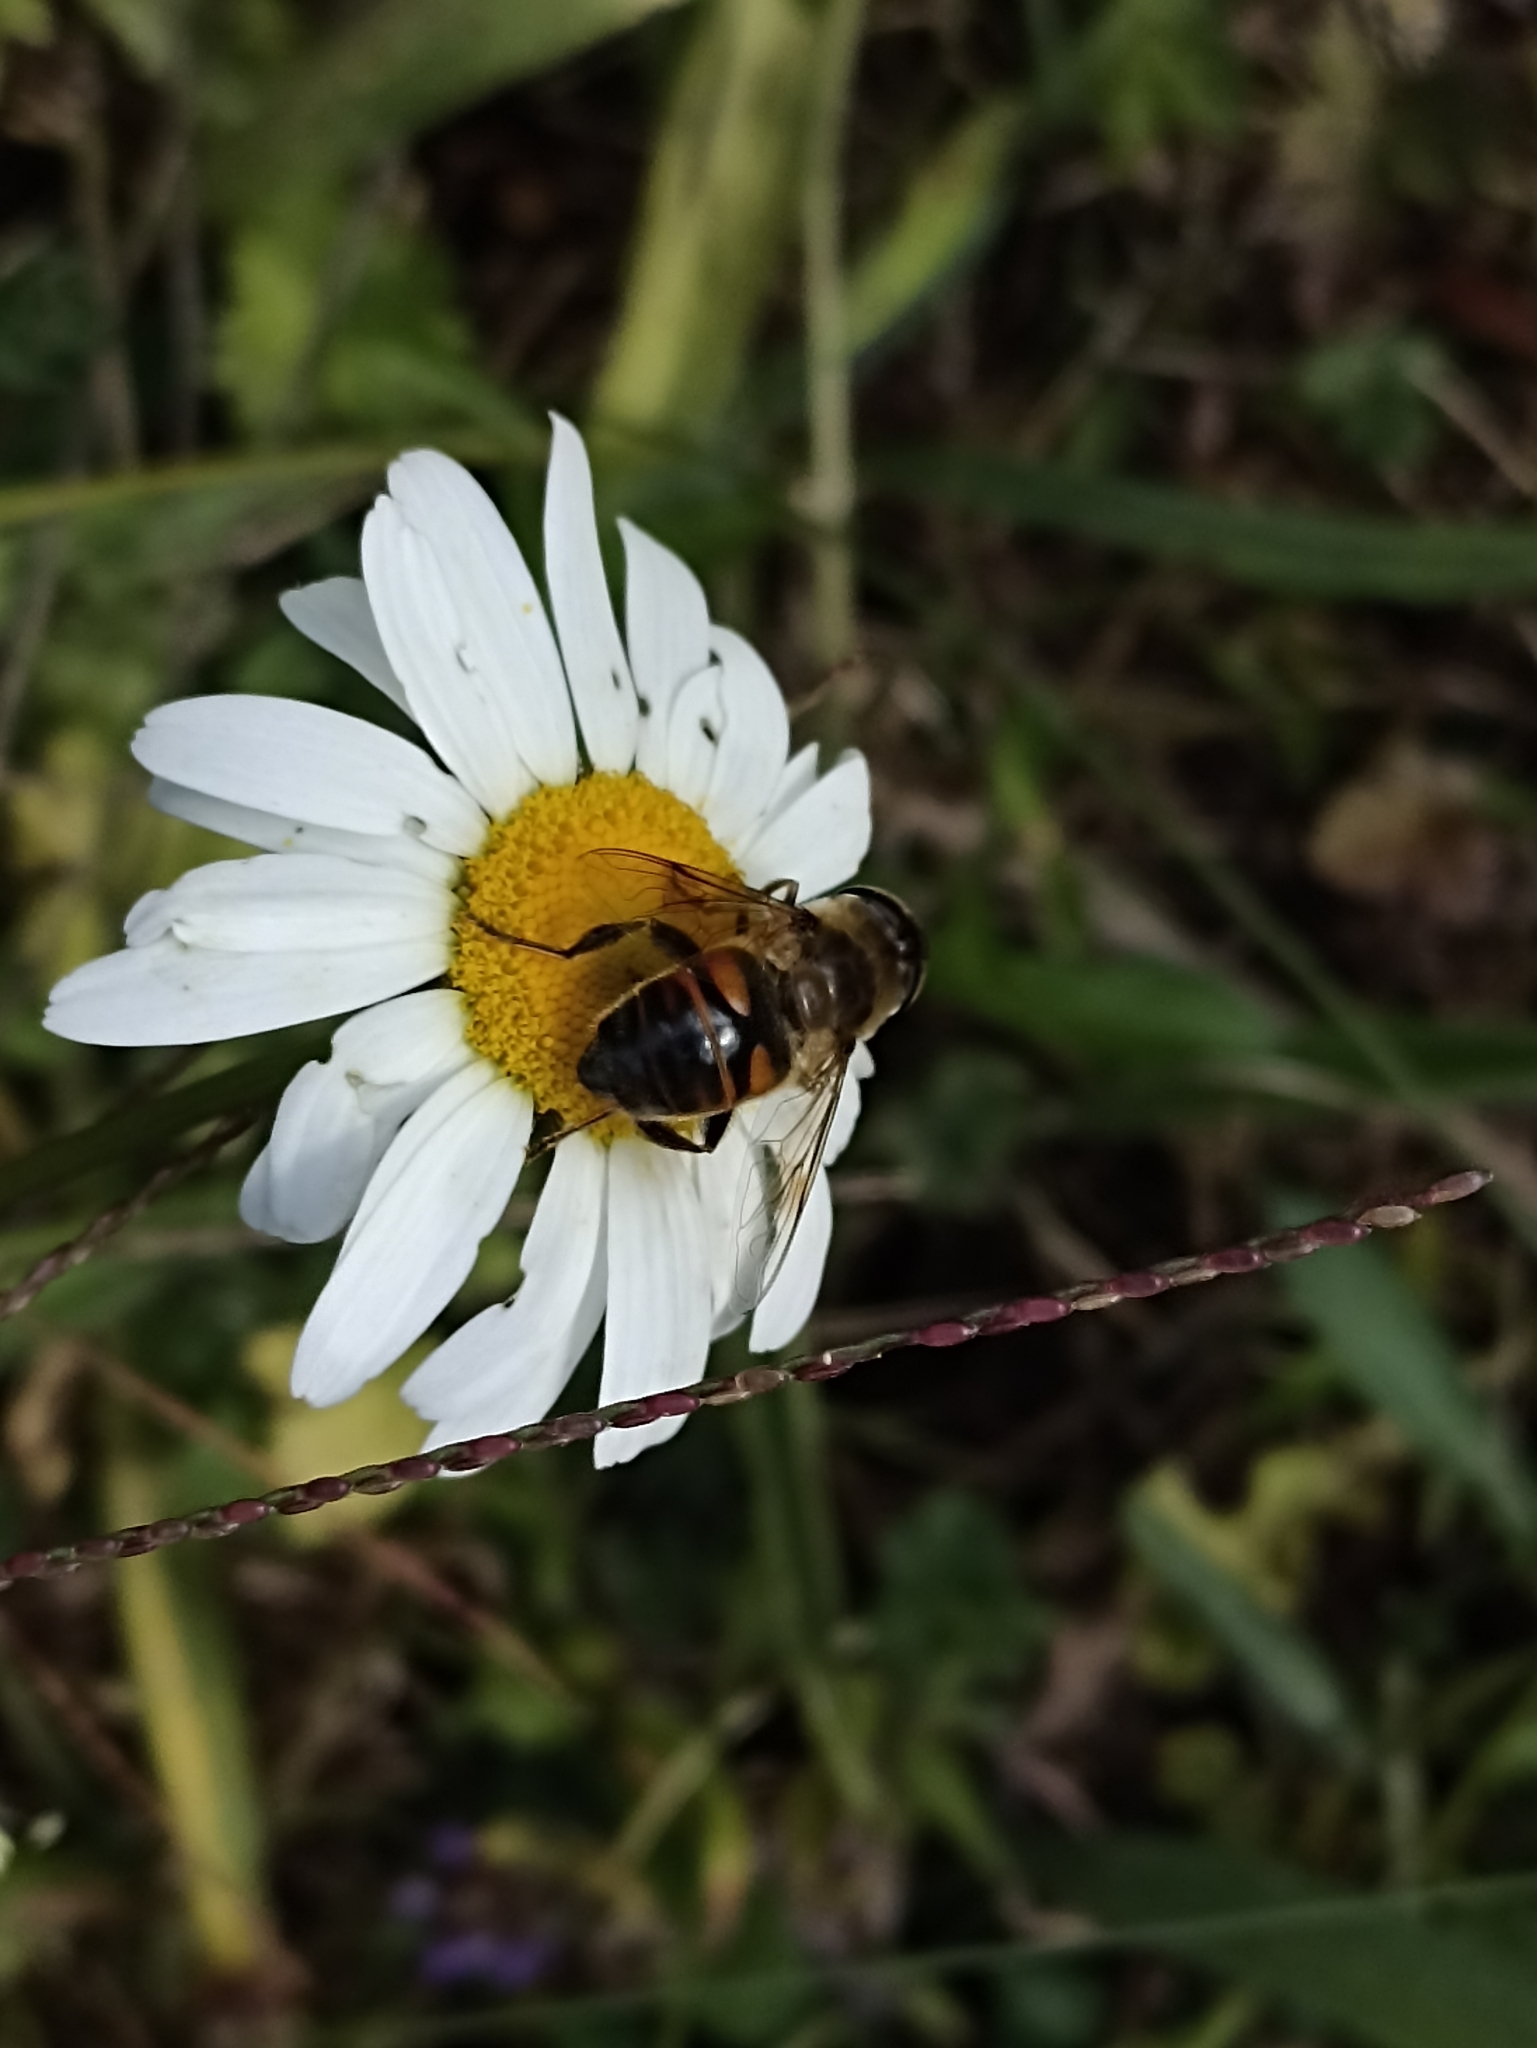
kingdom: Animalia
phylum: Arthropoda
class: Insecta
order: Diptera
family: Syrphidae
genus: Eristalis
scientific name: Eristalis tenax
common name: Drone fly
